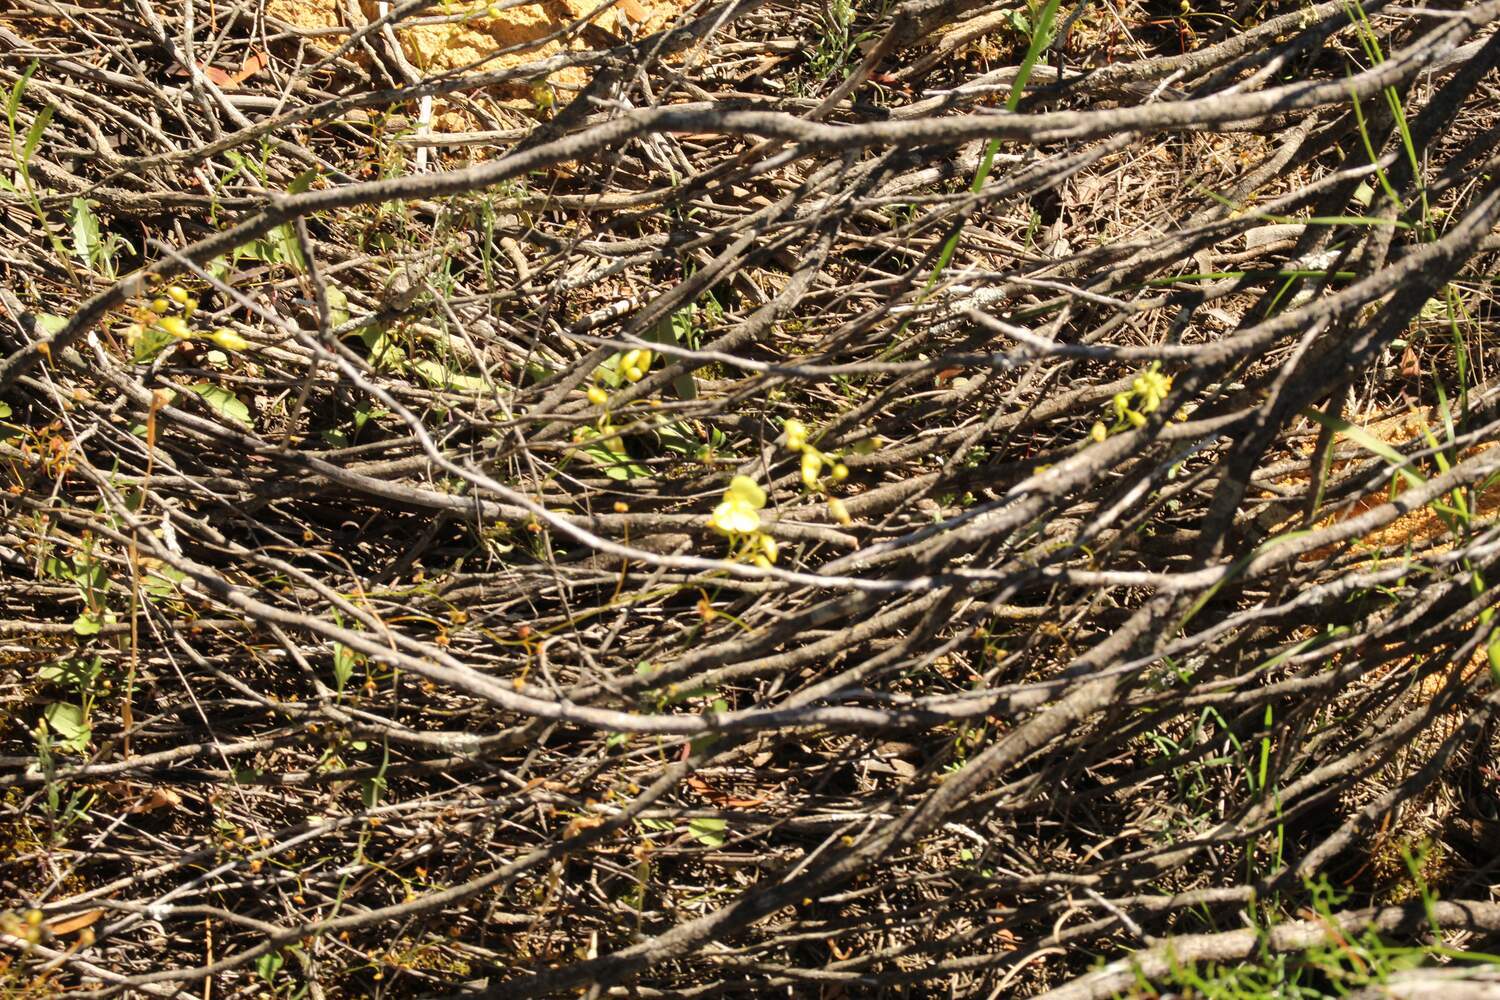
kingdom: Plantae
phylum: Tracheophyta
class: Magnoliopsida
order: Caryophyllales
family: Droseraceae
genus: Drosera
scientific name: Drosera moorei
